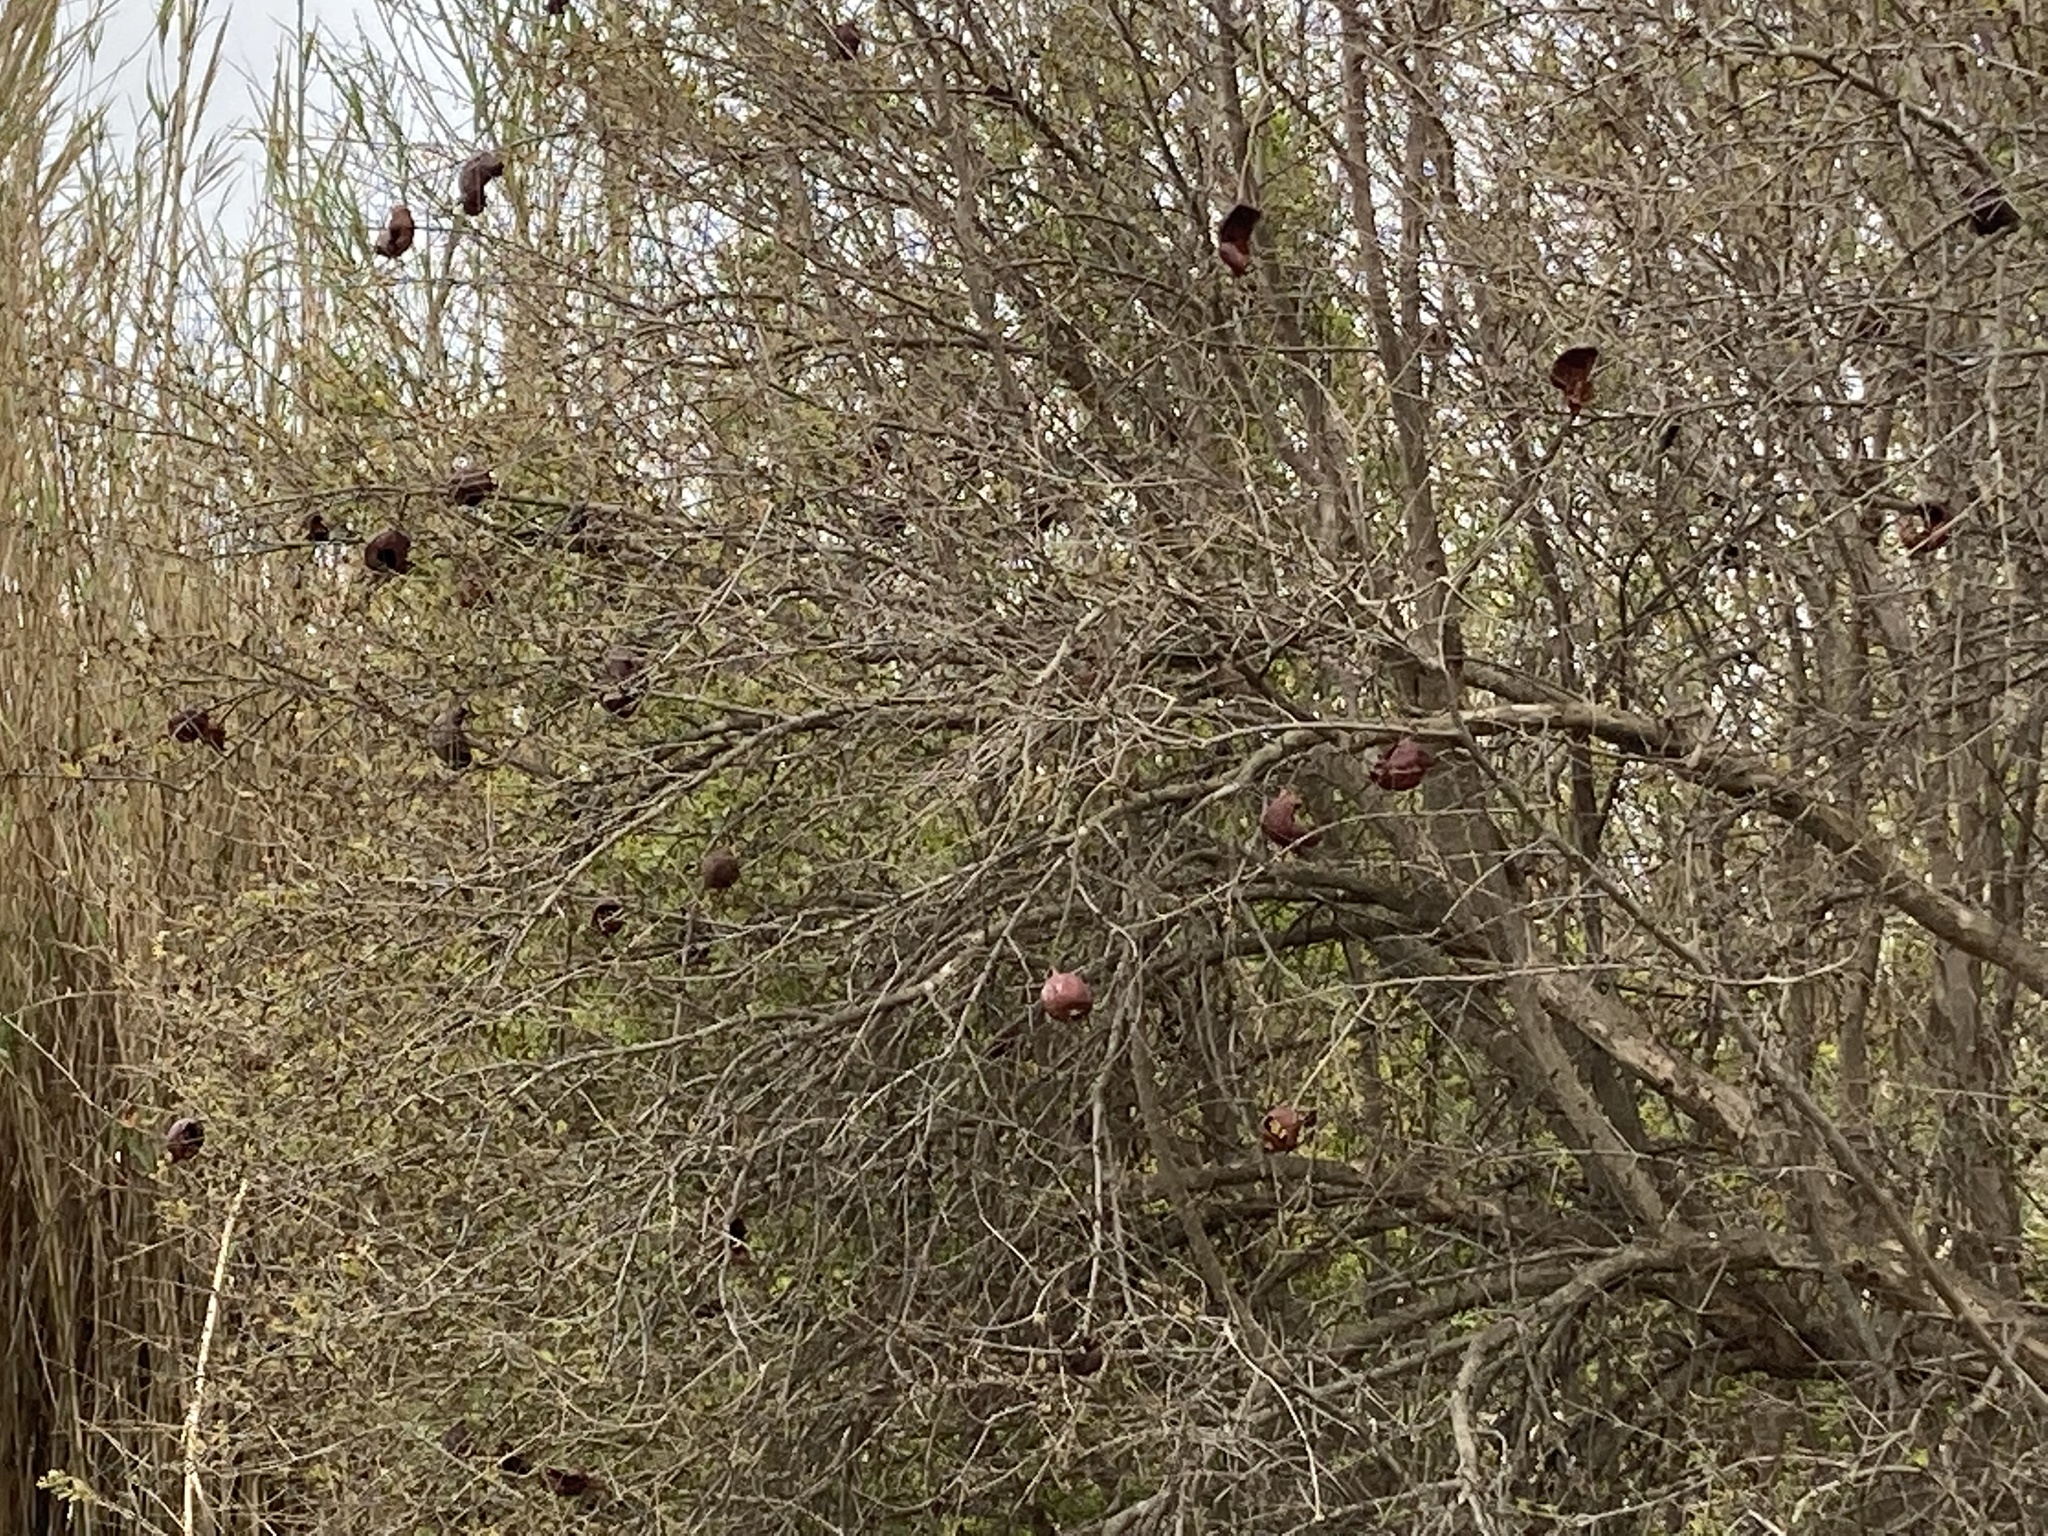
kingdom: Plantae
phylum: Tracheophyta
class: Magnoliopsida
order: Myrtales
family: Lythraceae
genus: Punica
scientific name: Punica granatum
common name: Pomegranate
